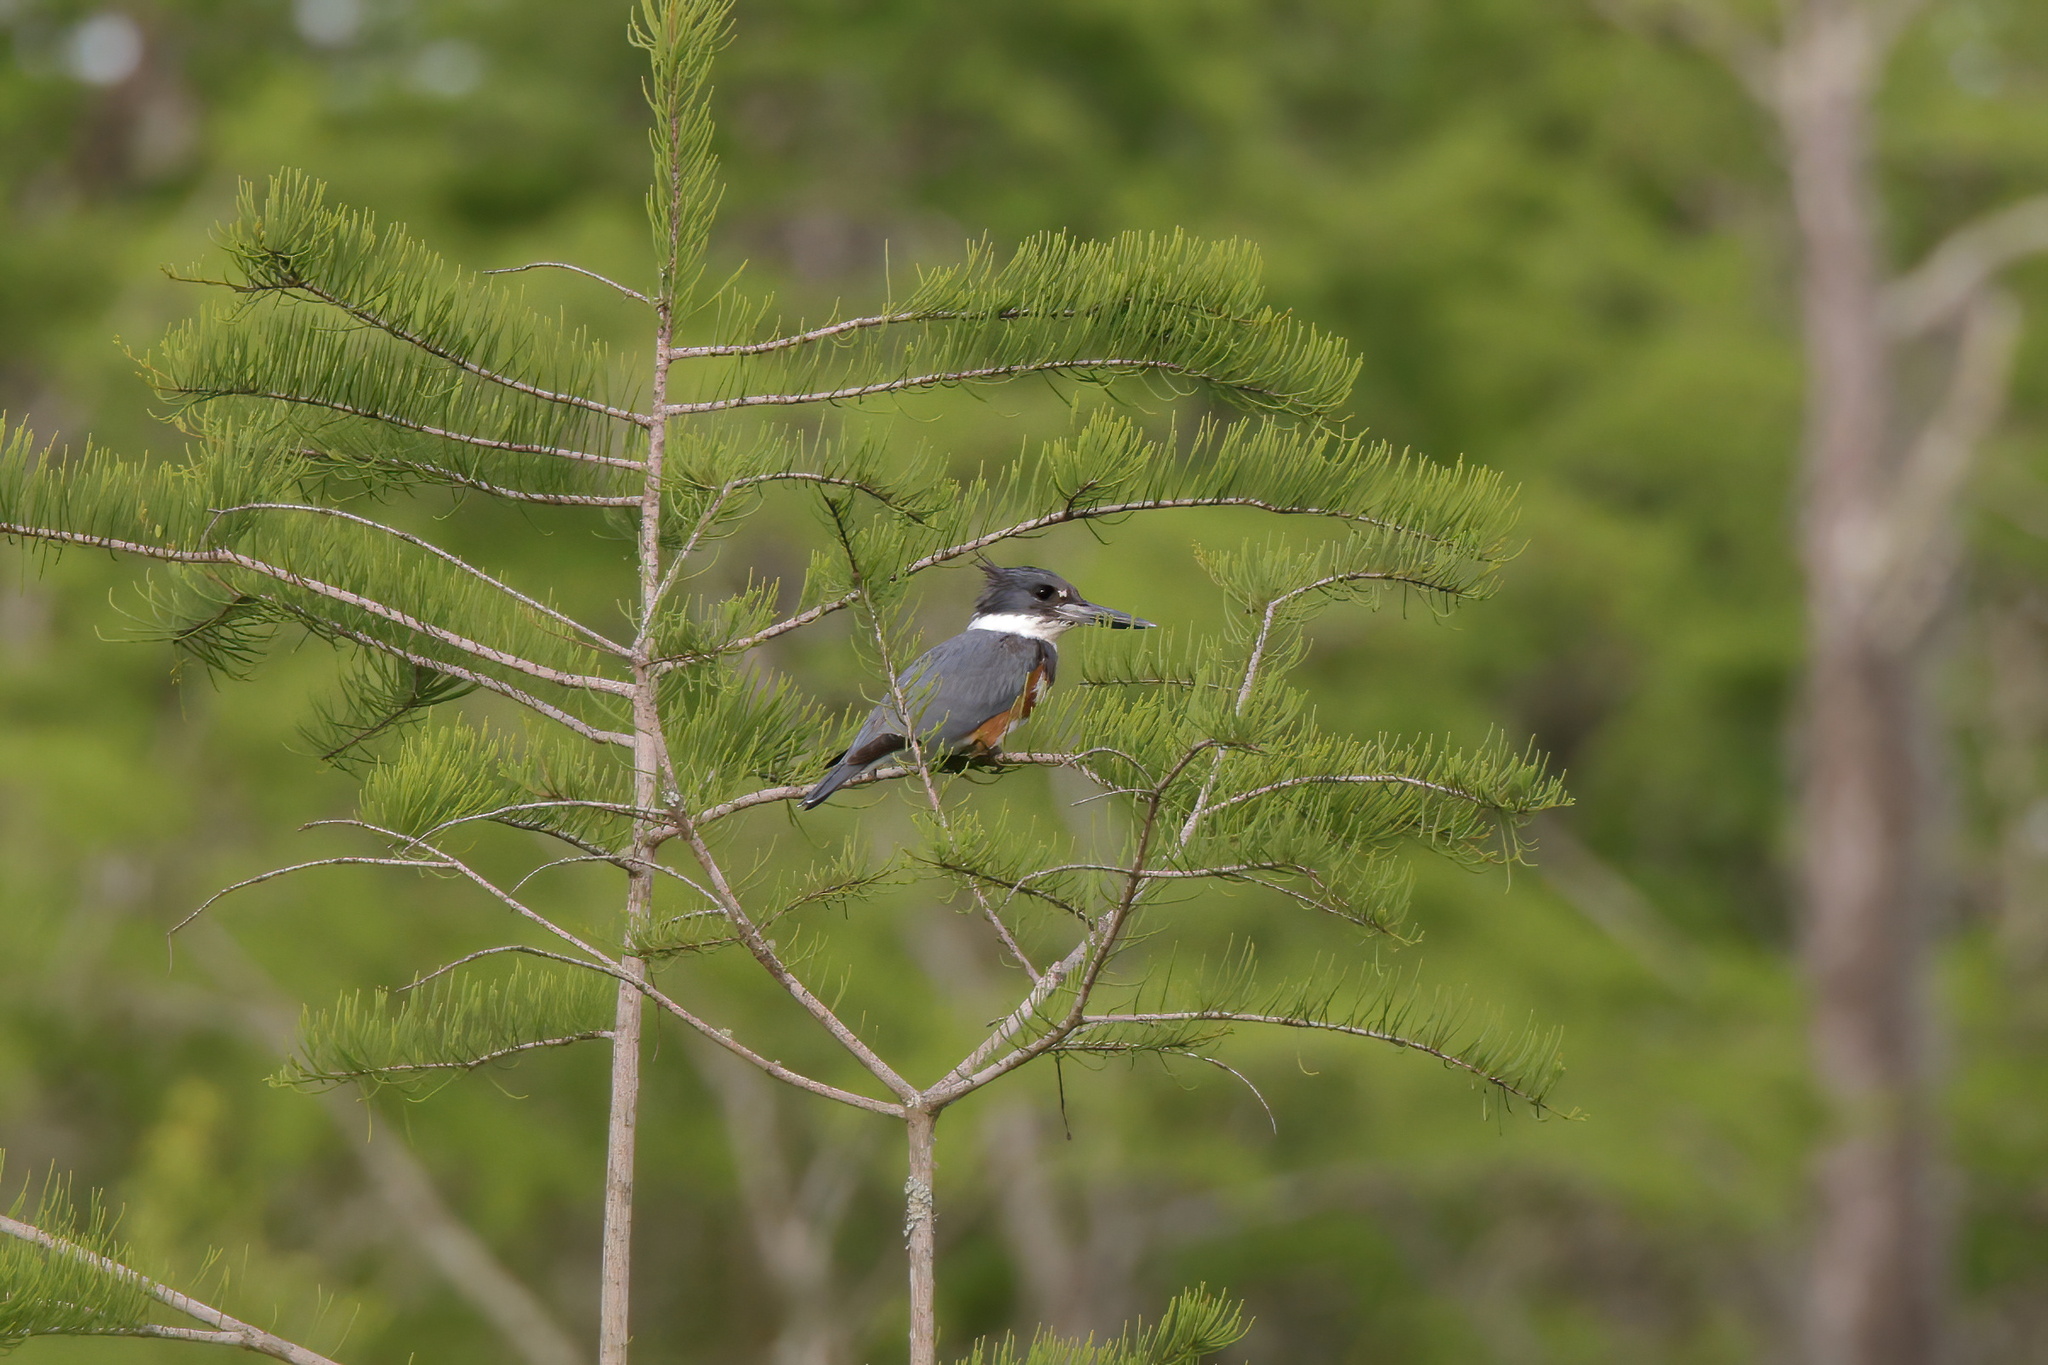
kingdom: Animalia
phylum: Chordata
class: Aves
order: Coraciiformes
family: Alcedinidae
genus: Megaceryle
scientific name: Megaceryle alcyon
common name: Belted kingfisher
